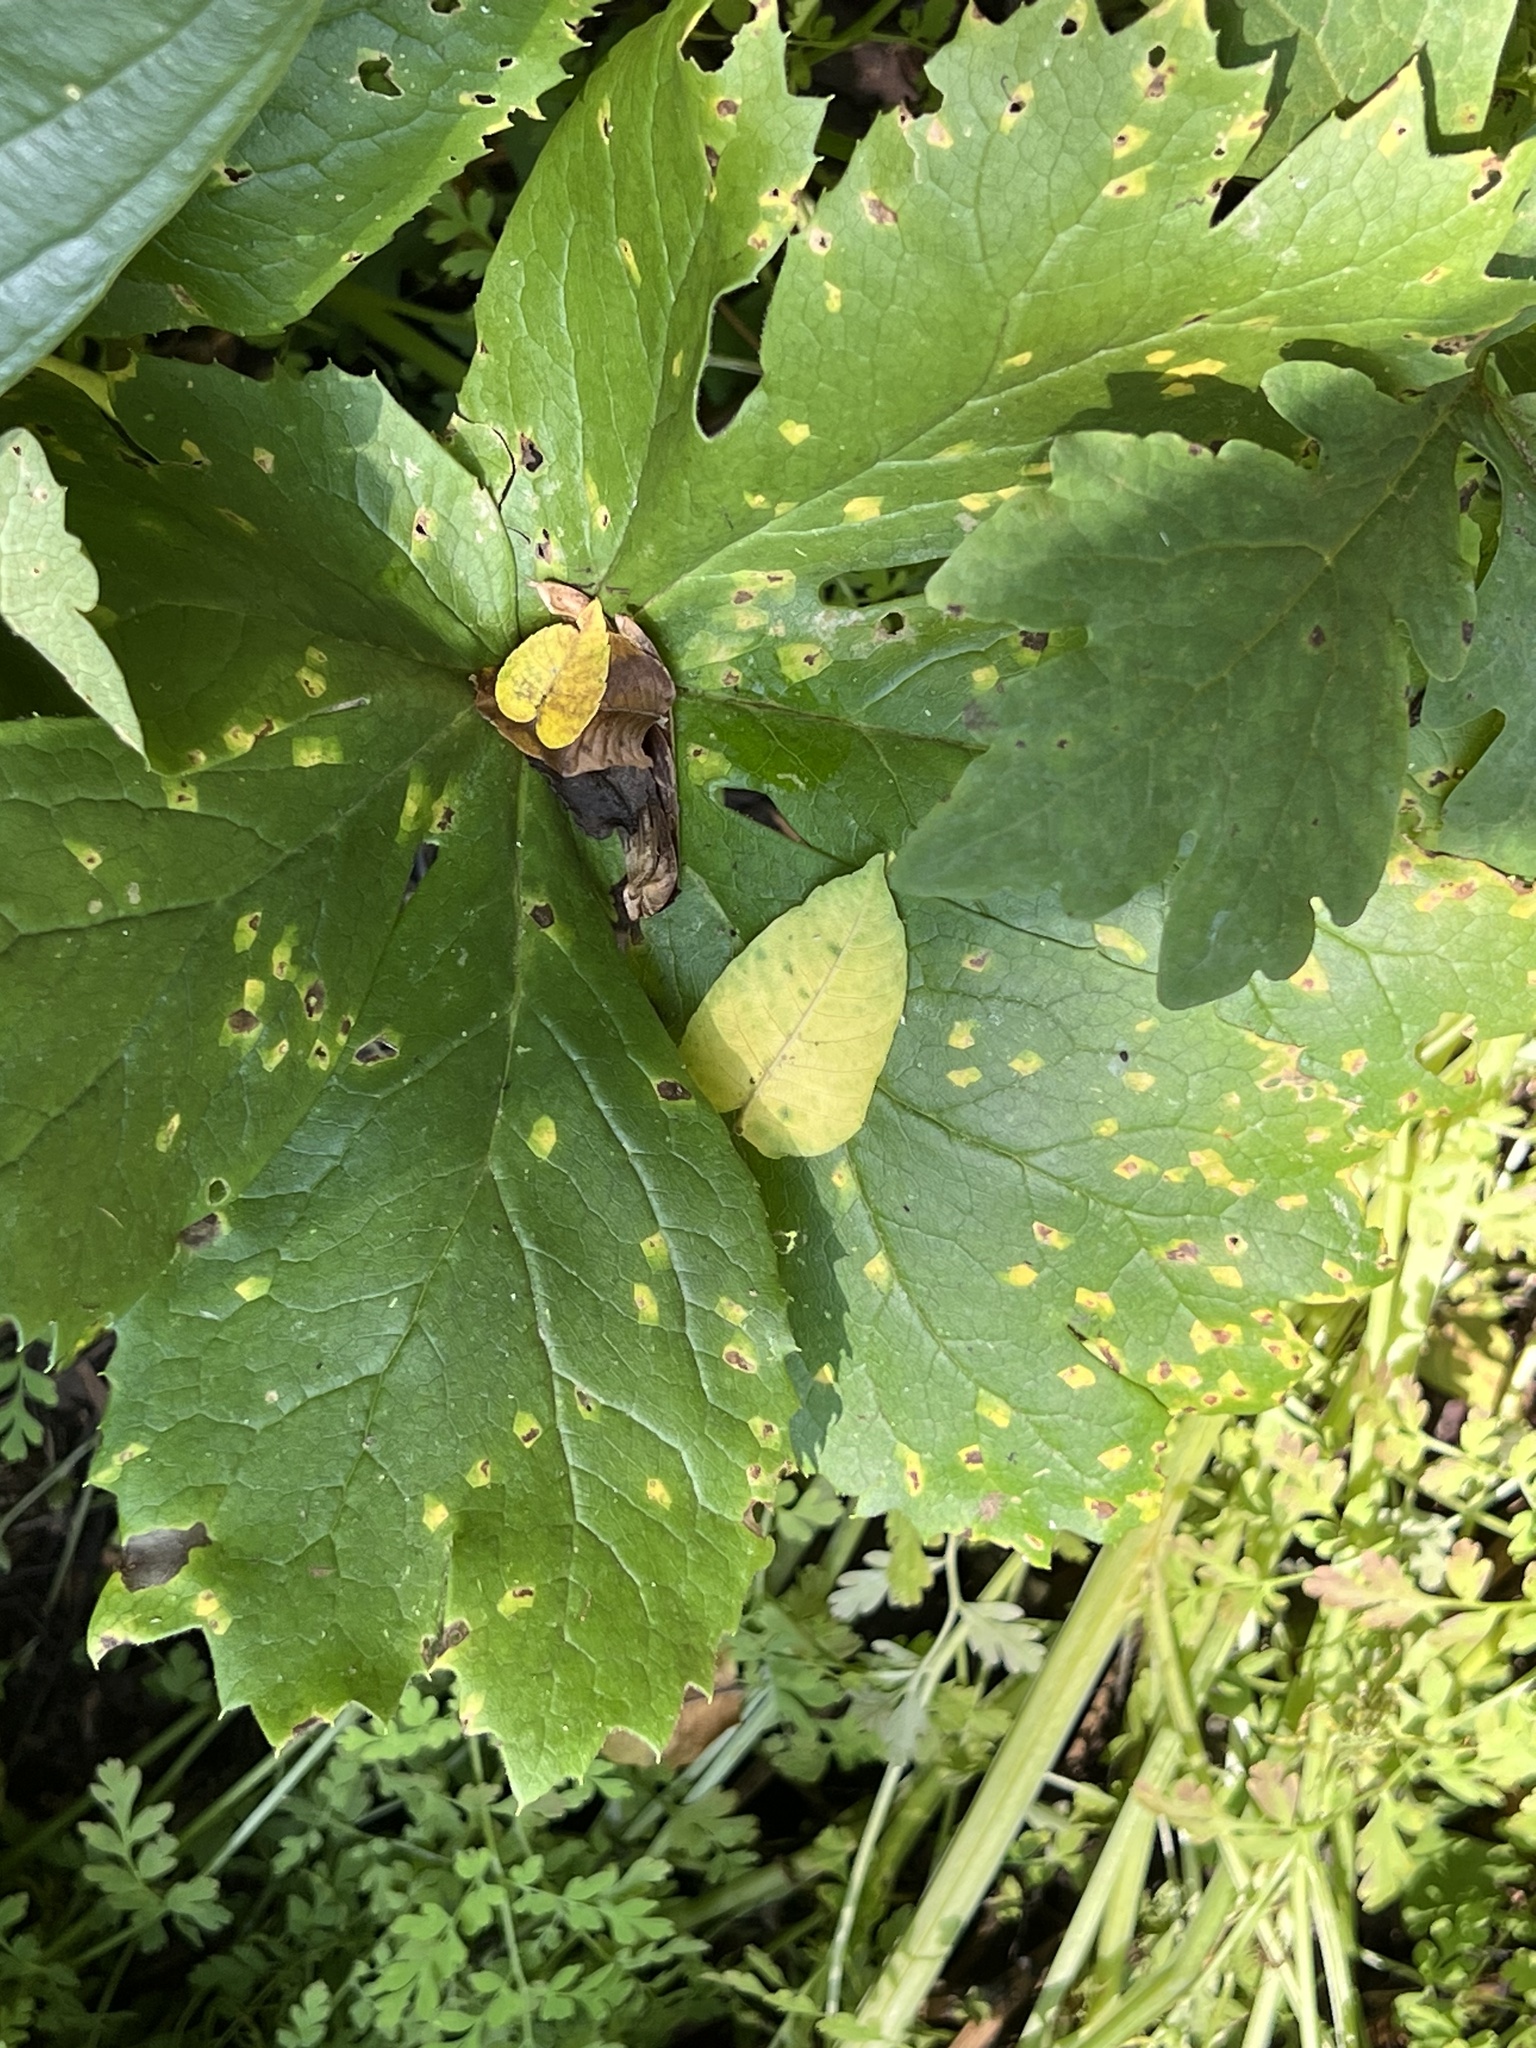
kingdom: Fungi
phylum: Basidiomycota
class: Pucciniomycetes
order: Pucciniales
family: Pucciniaceae
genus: Puccinia
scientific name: Puccinia podophylli
